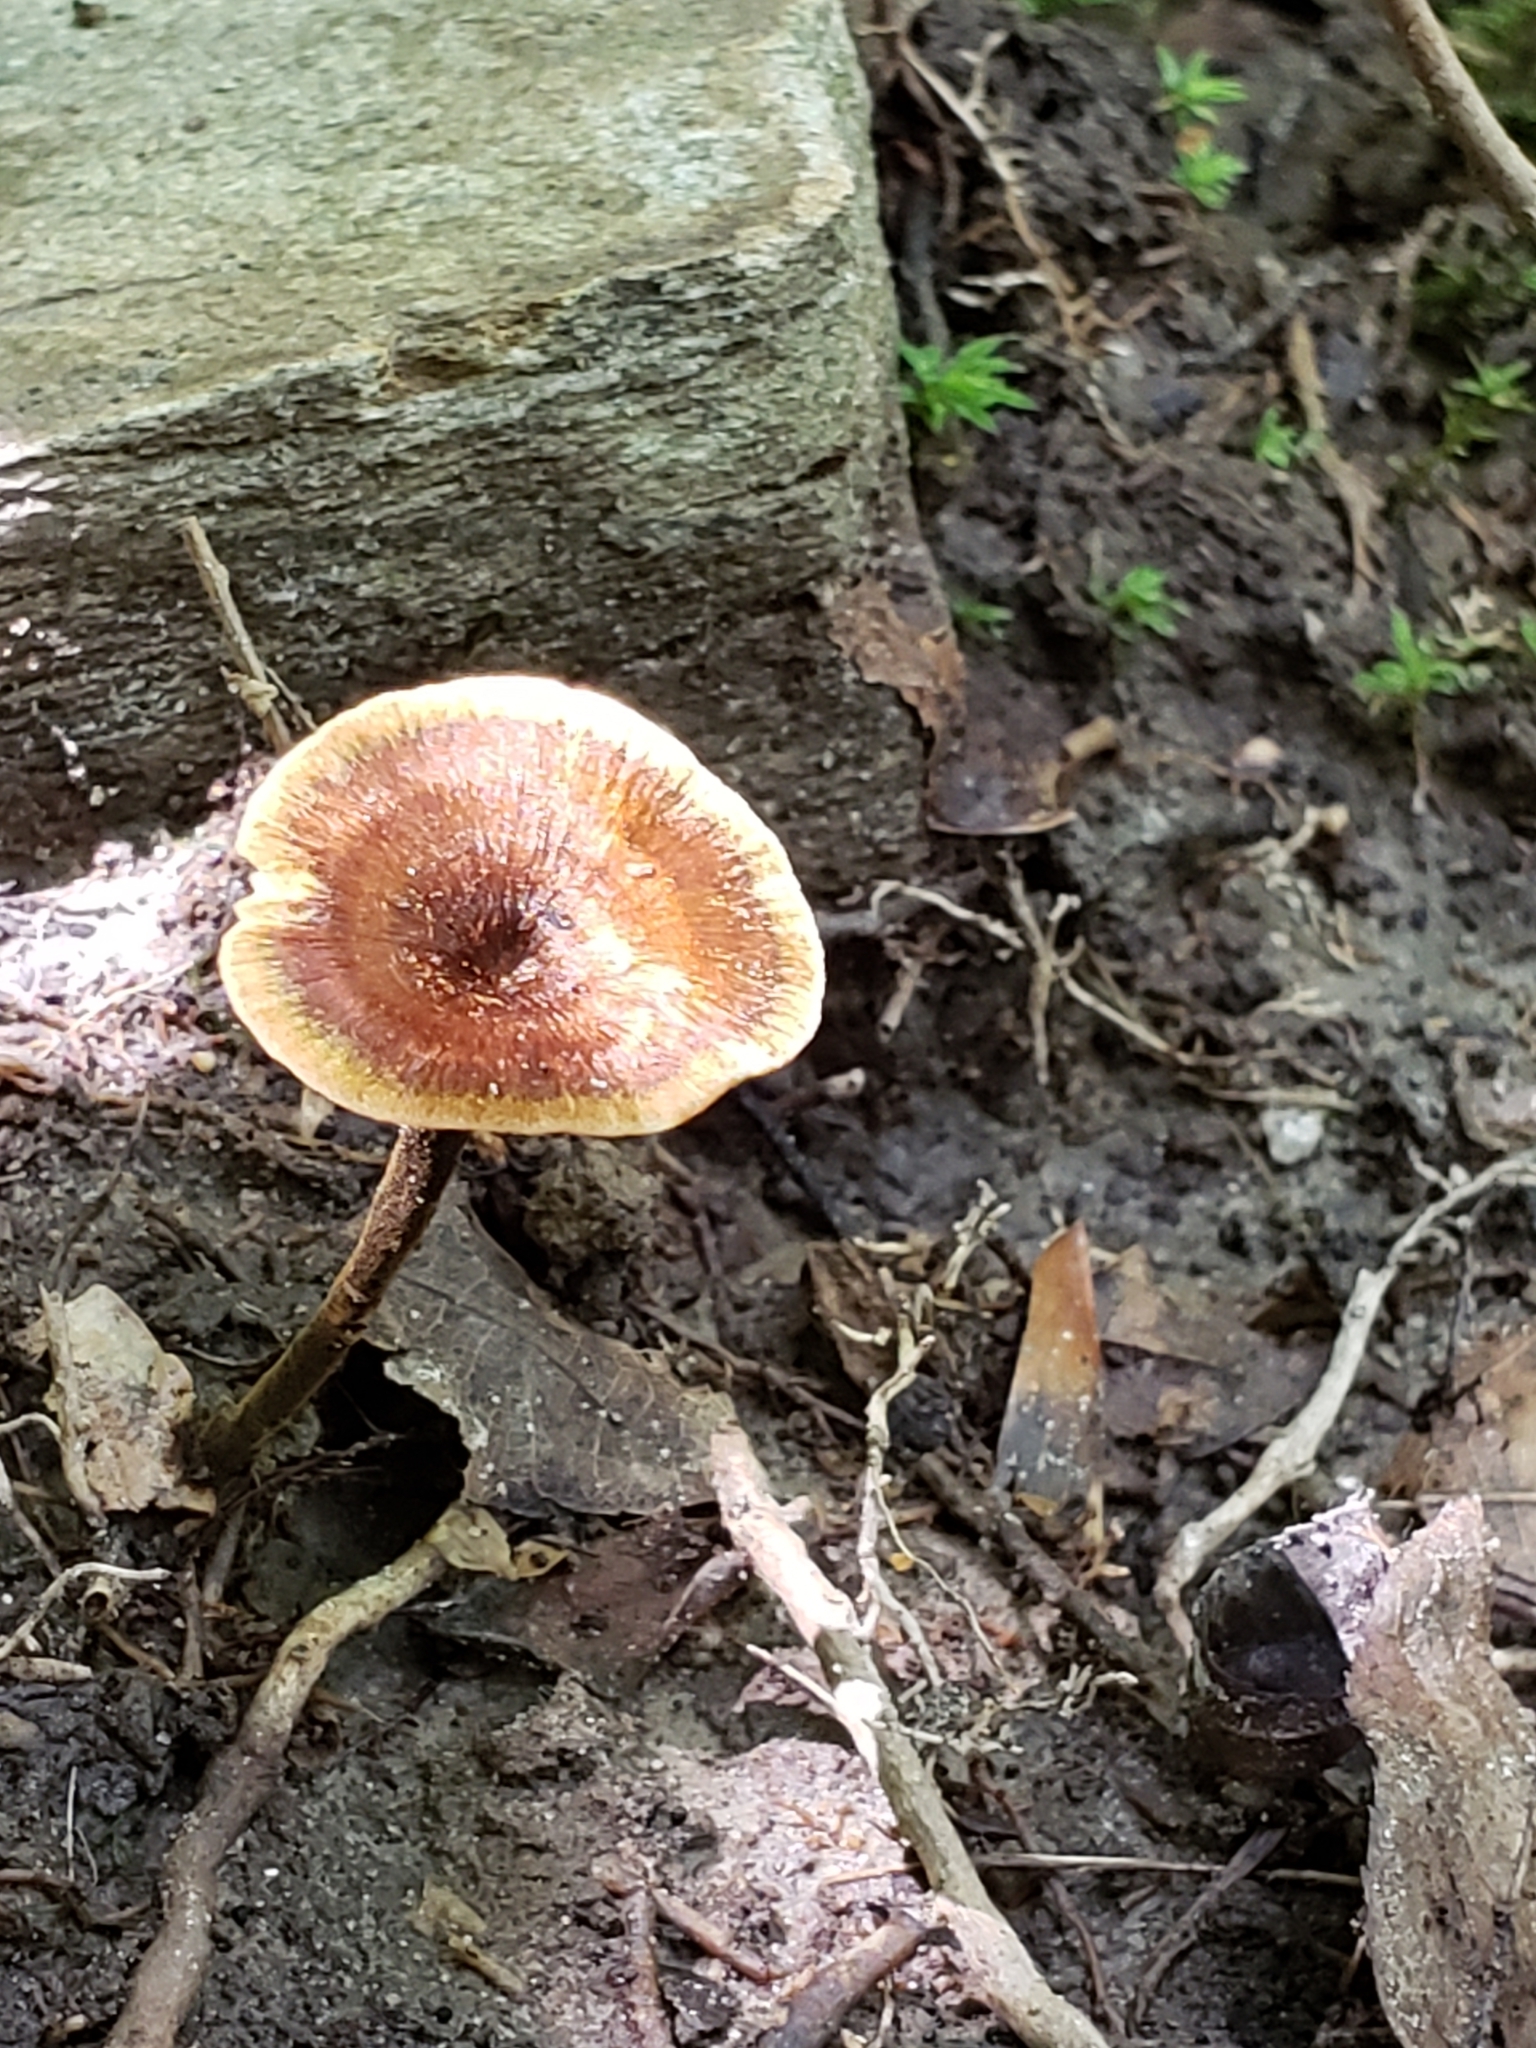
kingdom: Fungi
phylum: Basidiomycota
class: Agaricomycetes
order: Hymenochaetales
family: Hymenochaetaceae
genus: Coltricia
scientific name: Coltricia cinnamomea
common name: Shiny cinnamon polypore
